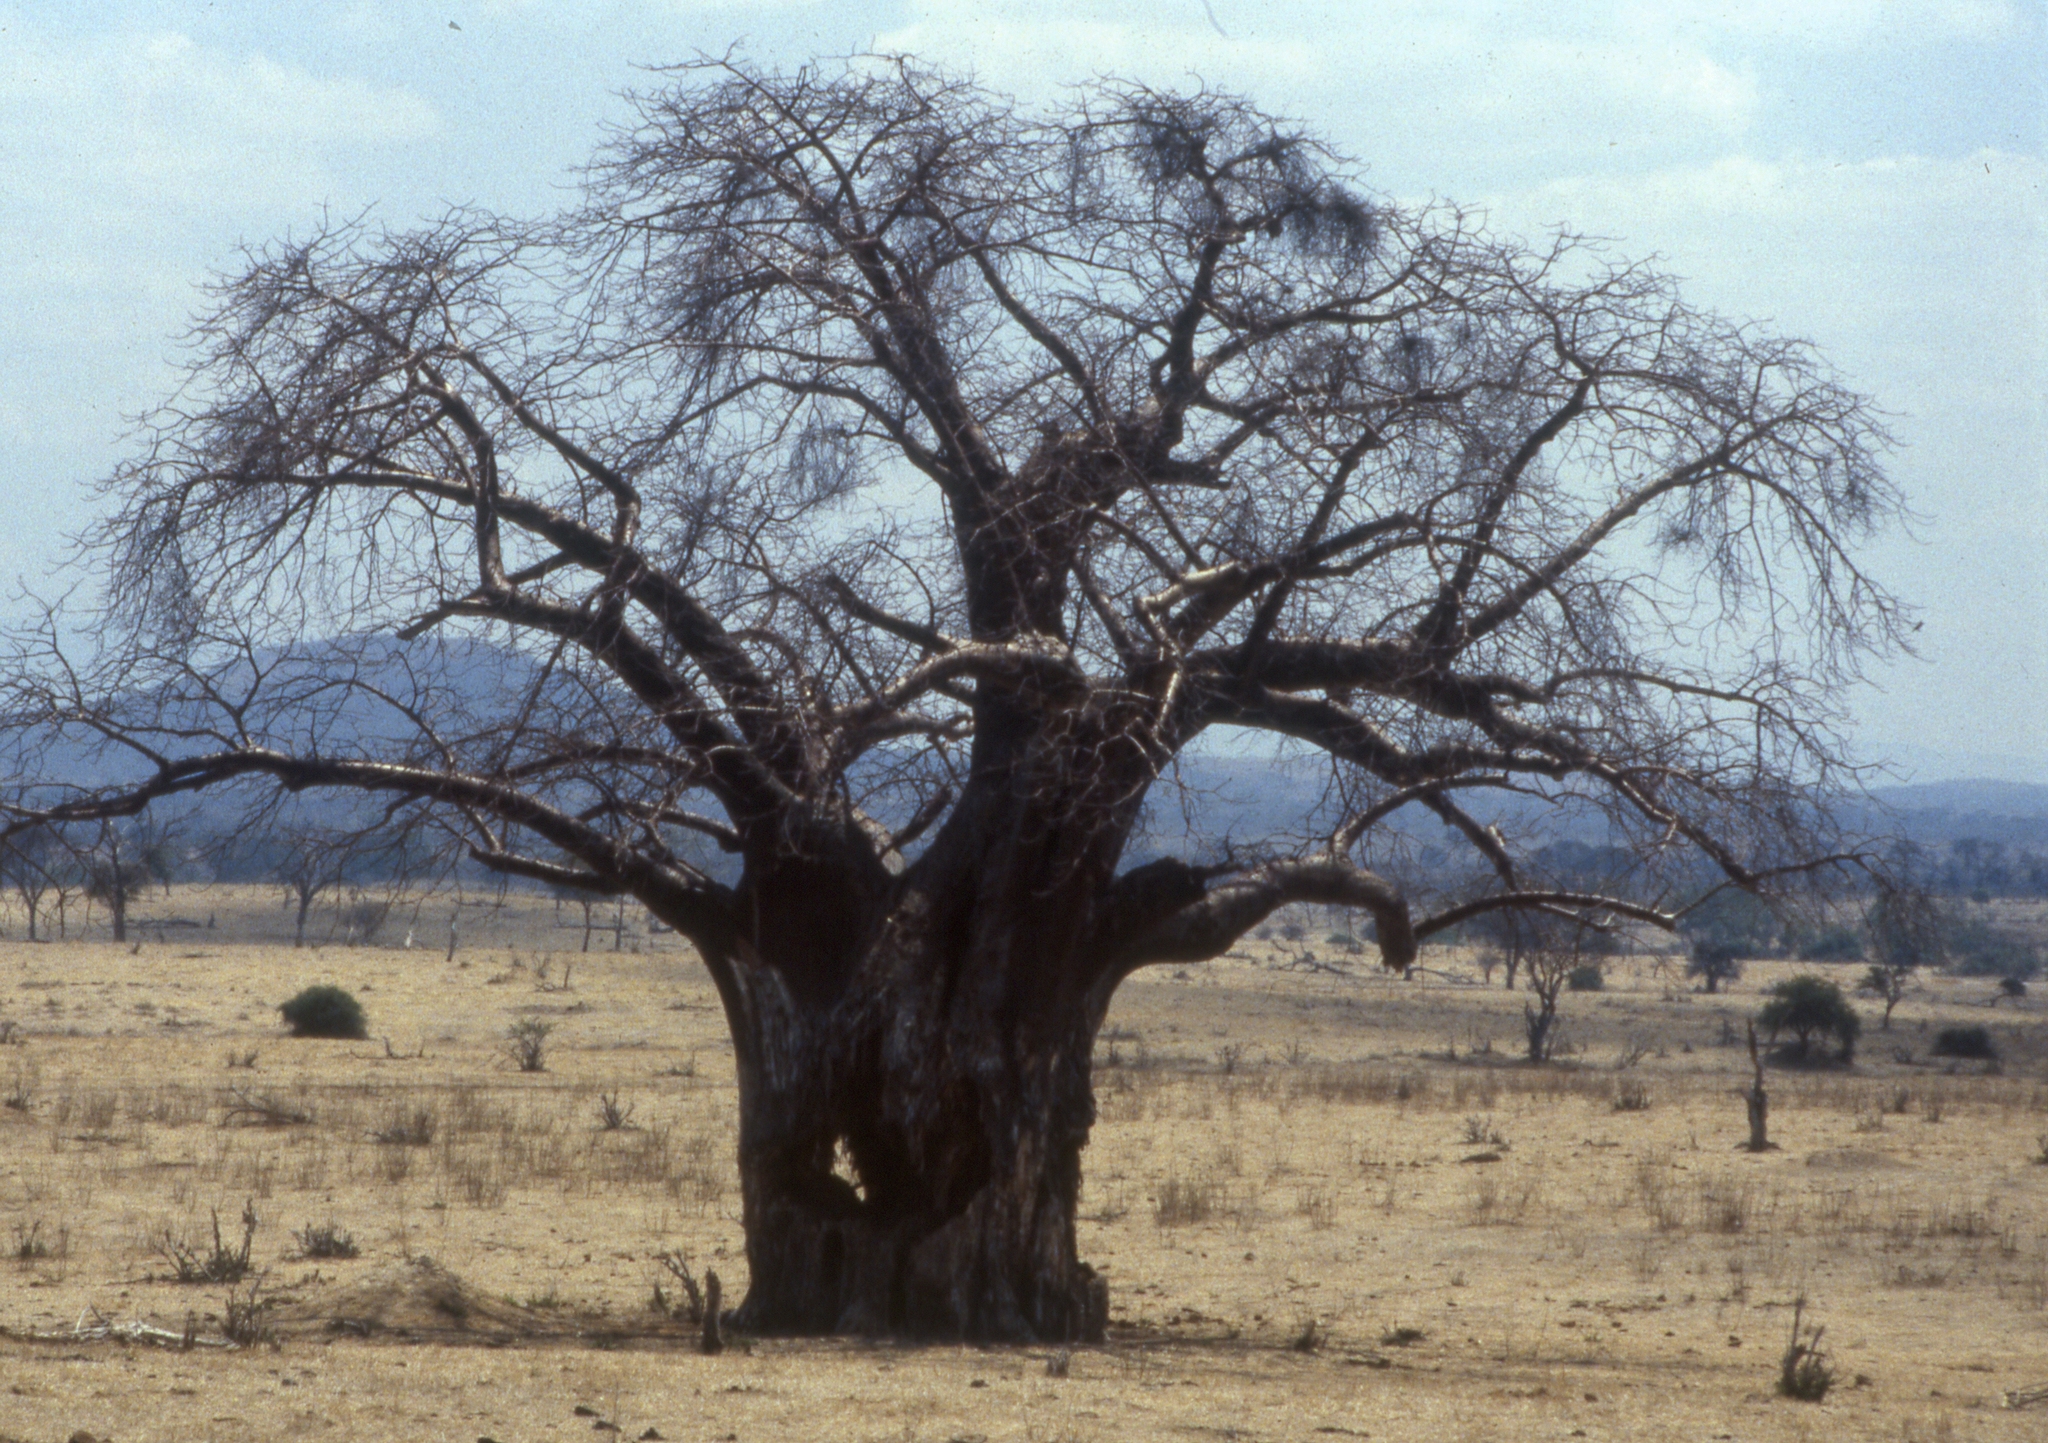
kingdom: Plantae
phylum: Tracheophyta
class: Magnoliopsida
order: Malvales
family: Malvaceae
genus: Adansonia
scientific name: Adansonia digitata
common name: Dead-rat-tree
